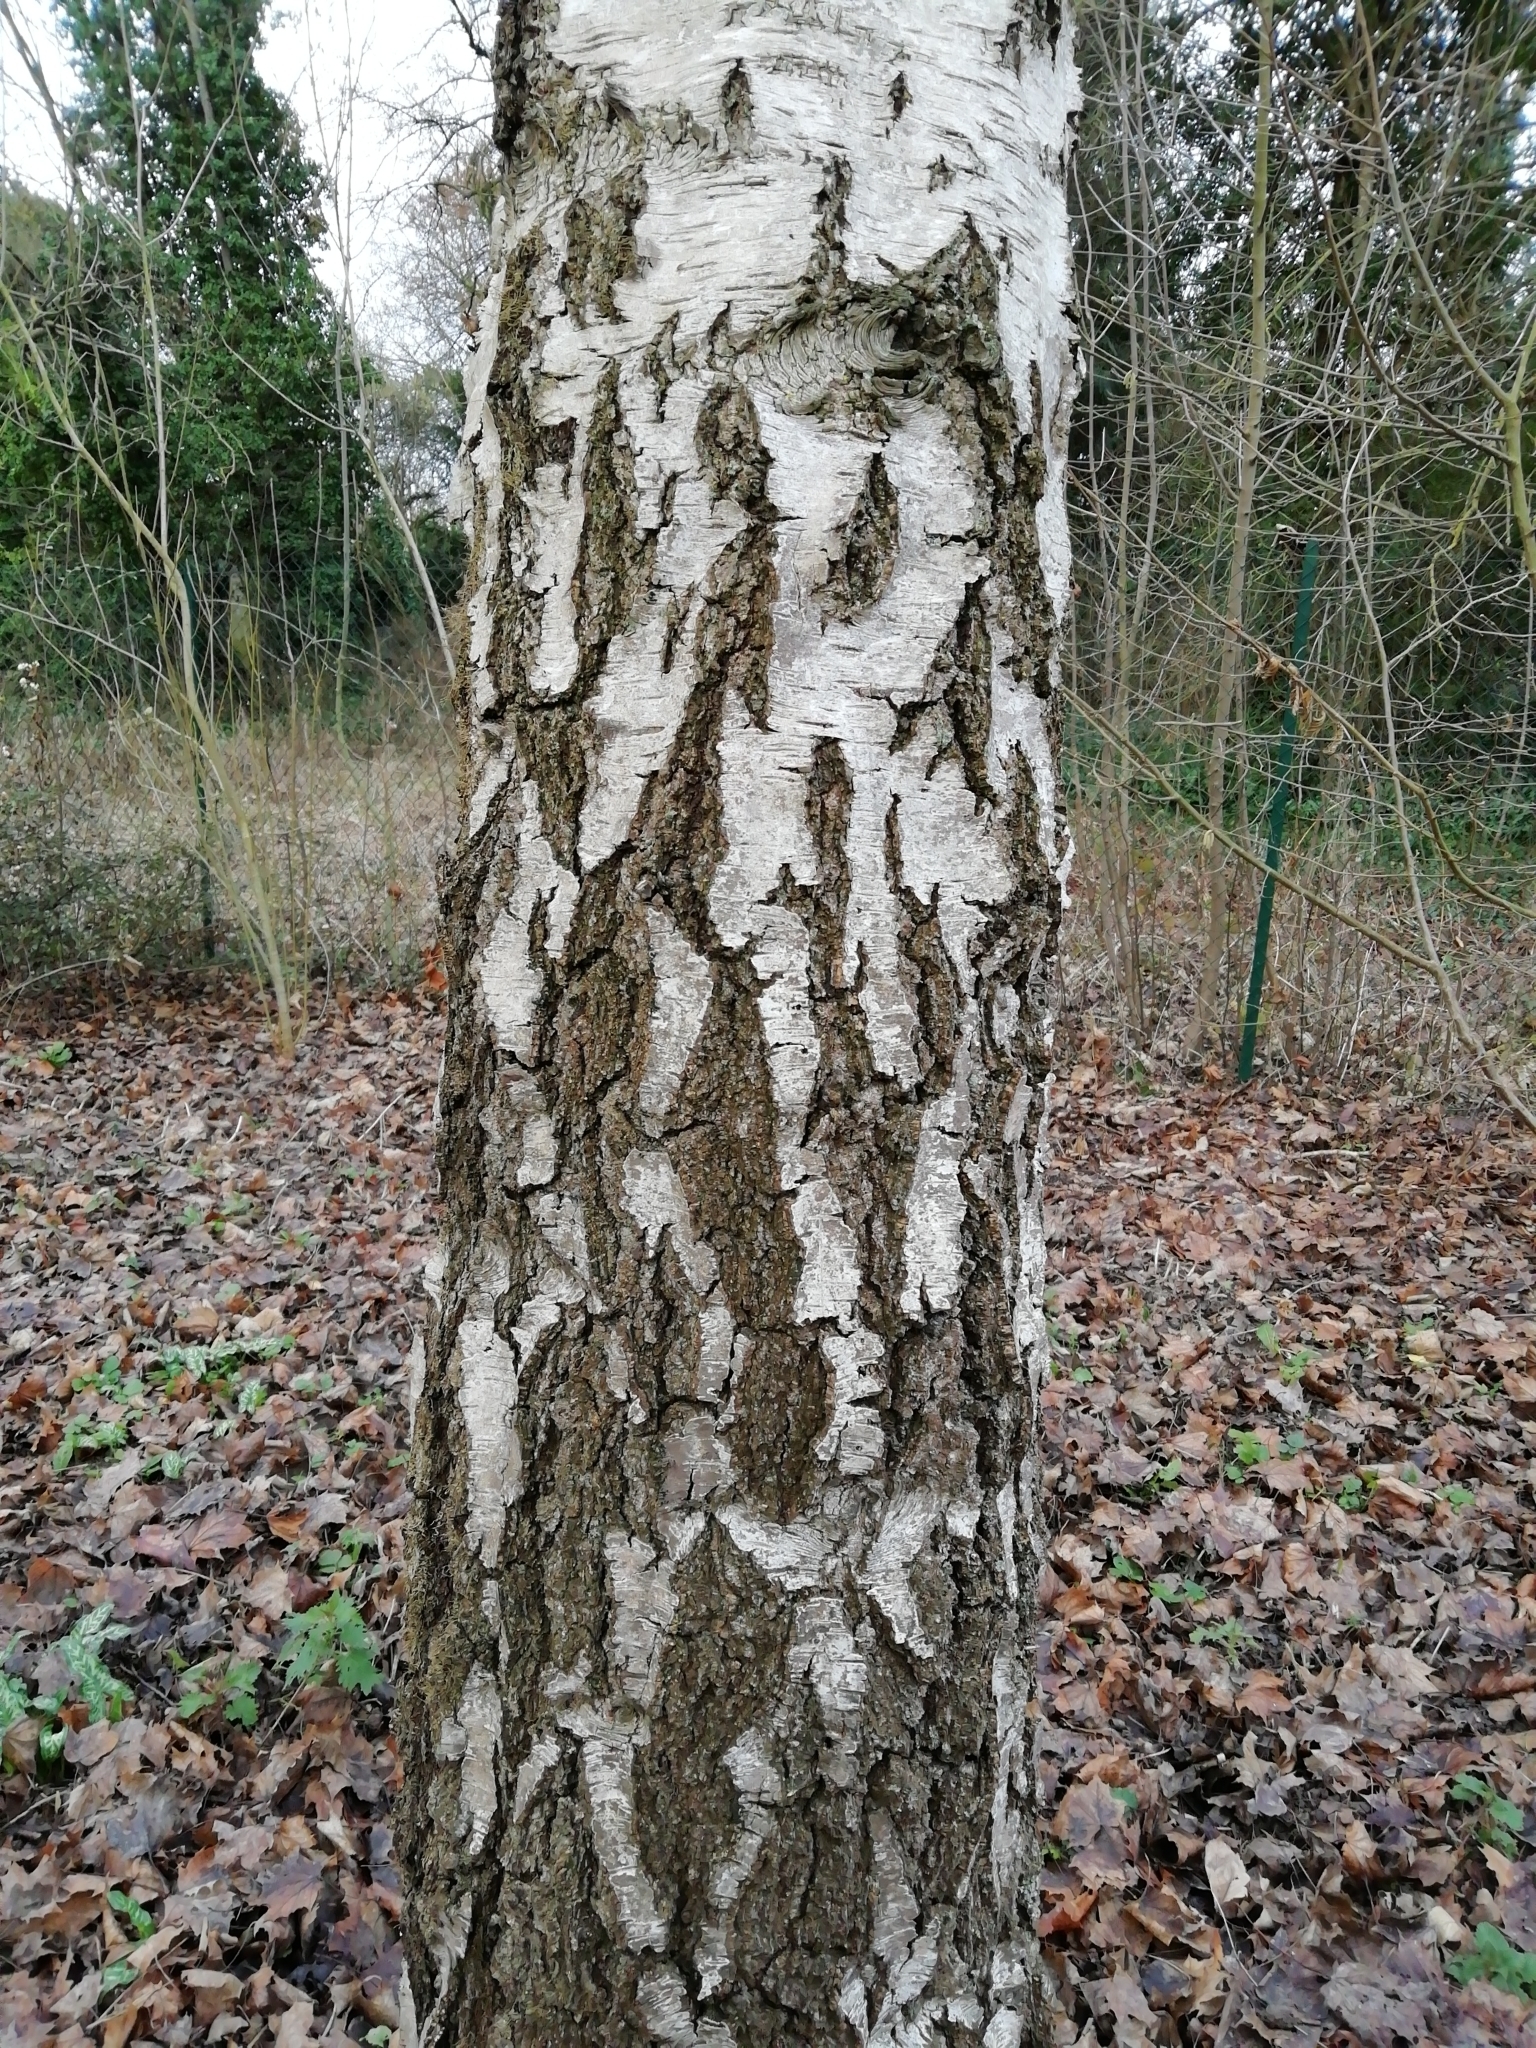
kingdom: Plantae
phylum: Tracheophyta
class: Magnoliopsida
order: Fagales
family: Betulaceae
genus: Betula
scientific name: Betula pendula
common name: Silver birch
